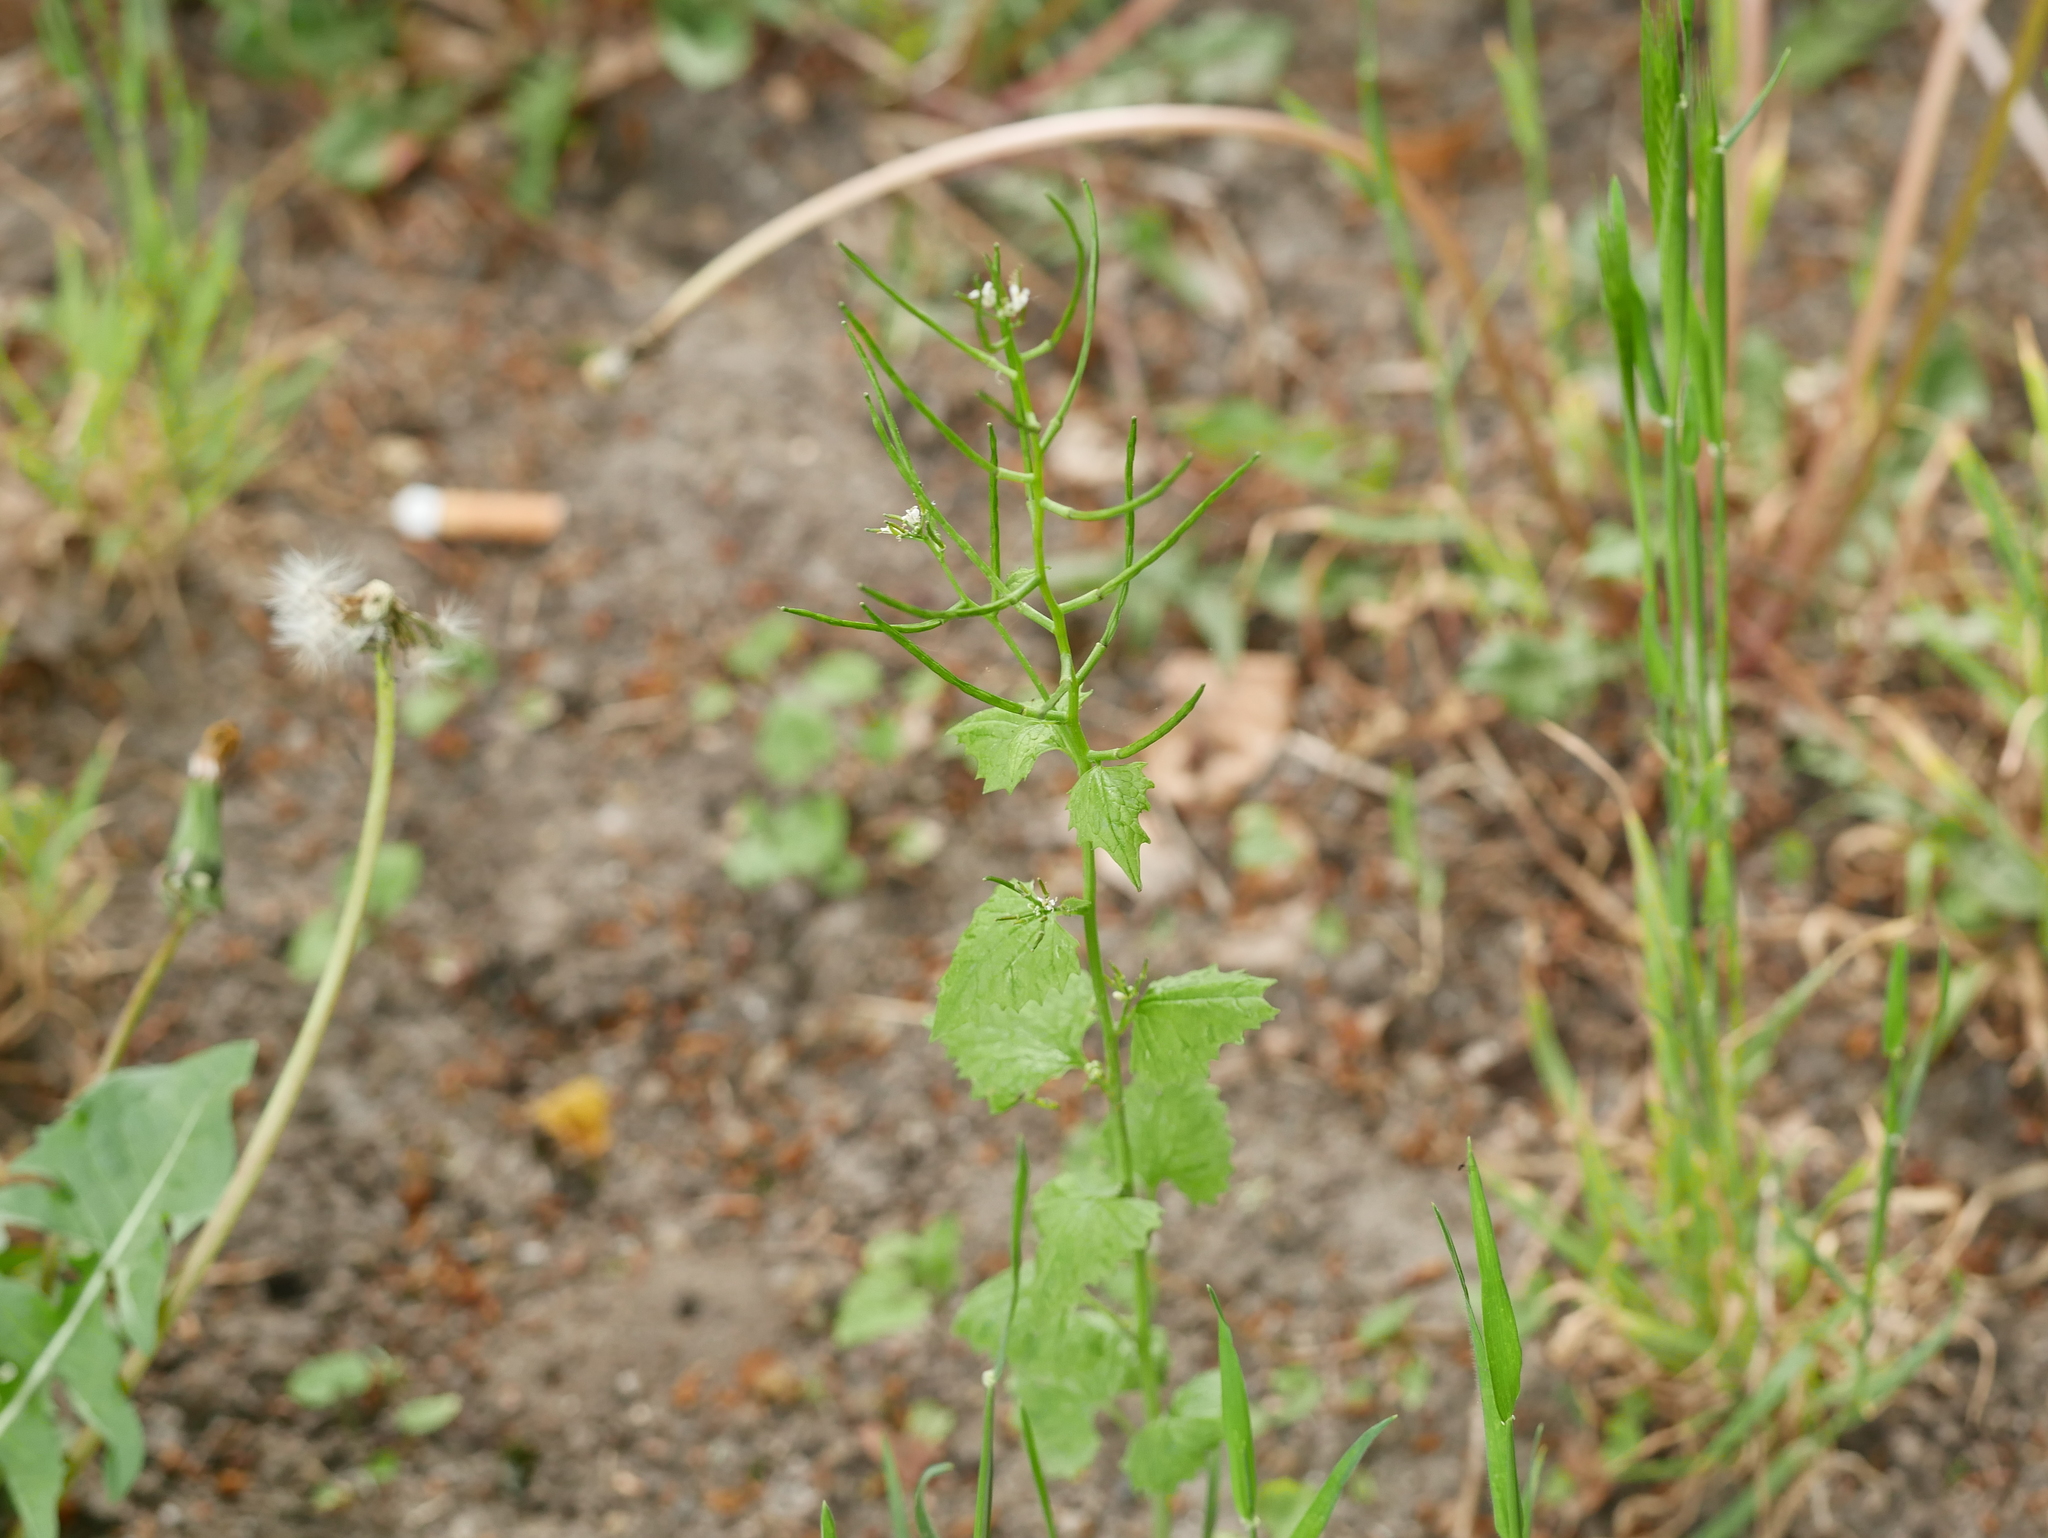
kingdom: Plantae
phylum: Tracheophyta
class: Magnoliopsida
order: Brassicales
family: Brassicaceae
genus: Alliaria
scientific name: Alliaria petiolata
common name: Garlic mustard
